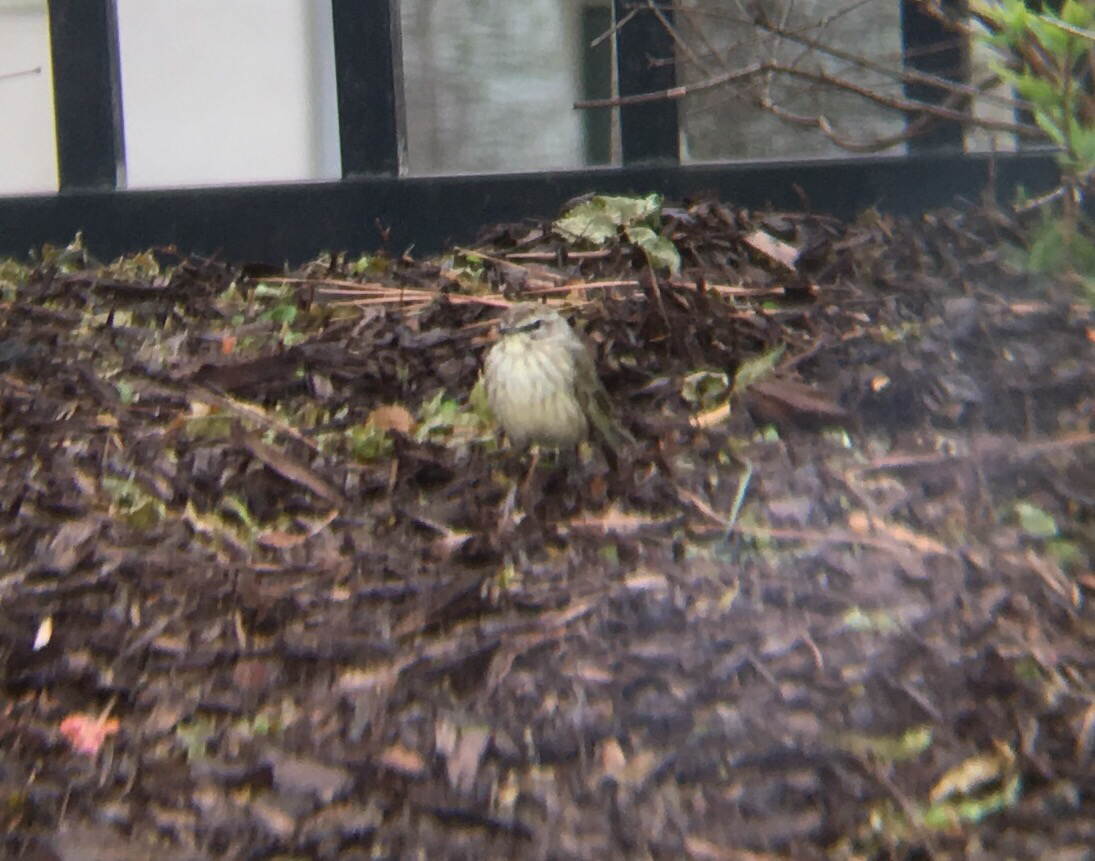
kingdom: Animalia
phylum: Chordata
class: Aves
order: Passeriformes
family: Parulidae
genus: Setophaga
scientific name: Setophaga palmarum
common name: Palm warbler
